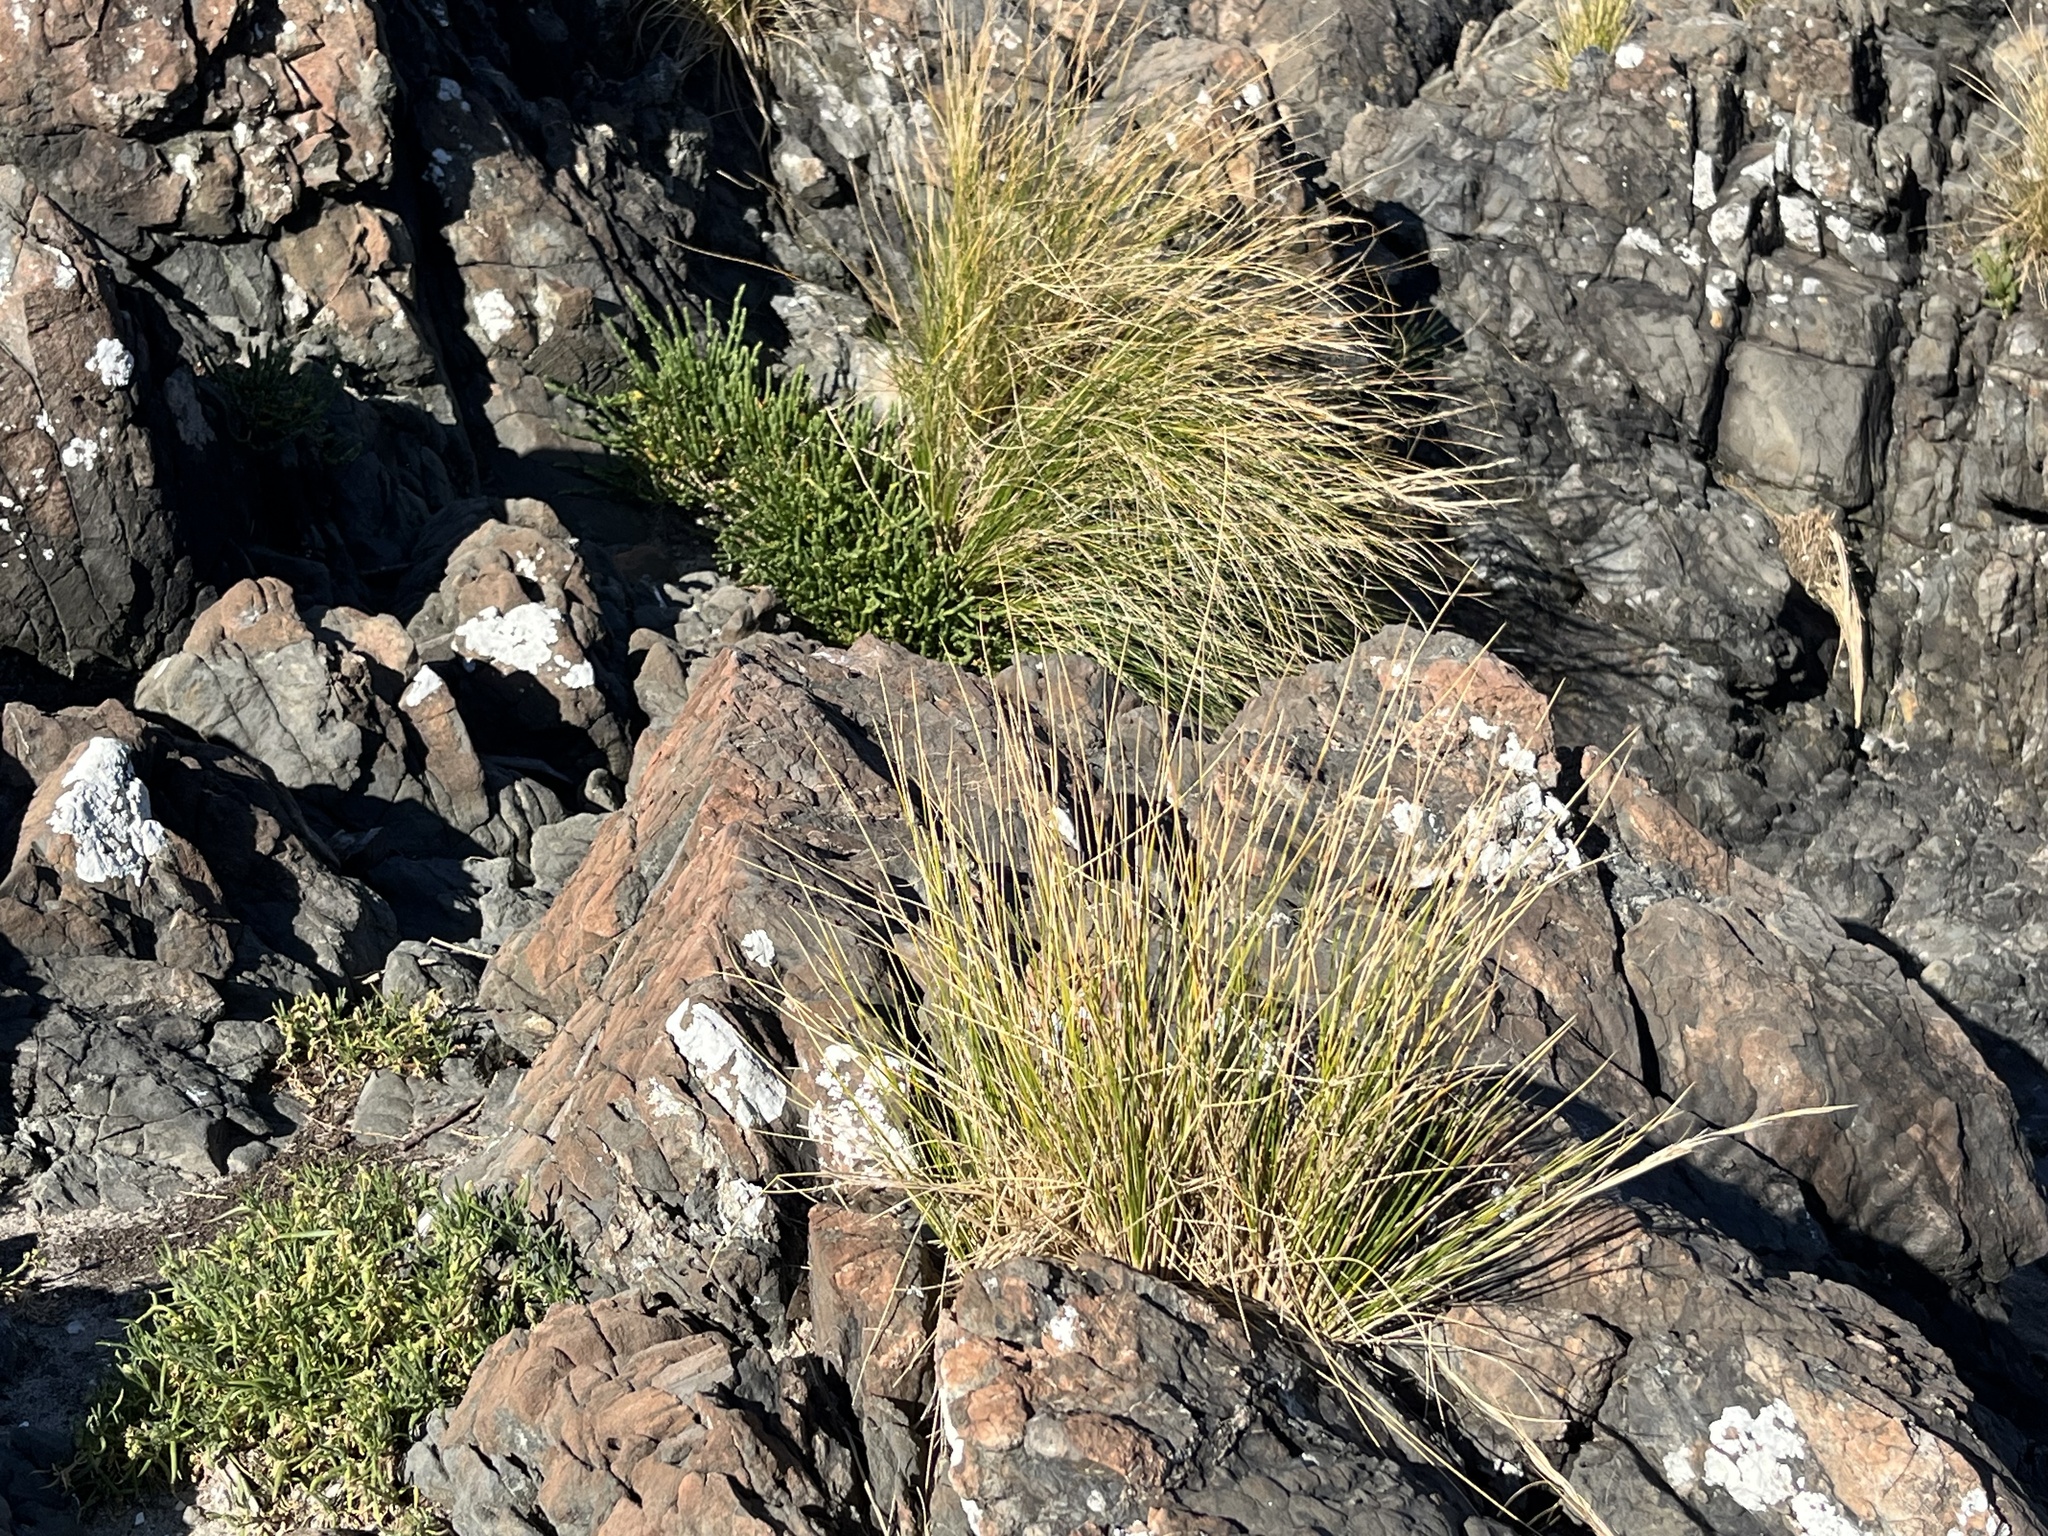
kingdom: Plantae
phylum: Tracheophyta
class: Liliopsida
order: Poales
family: Poaceae
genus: Austrostipa
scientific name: Austrostipa stipoides
